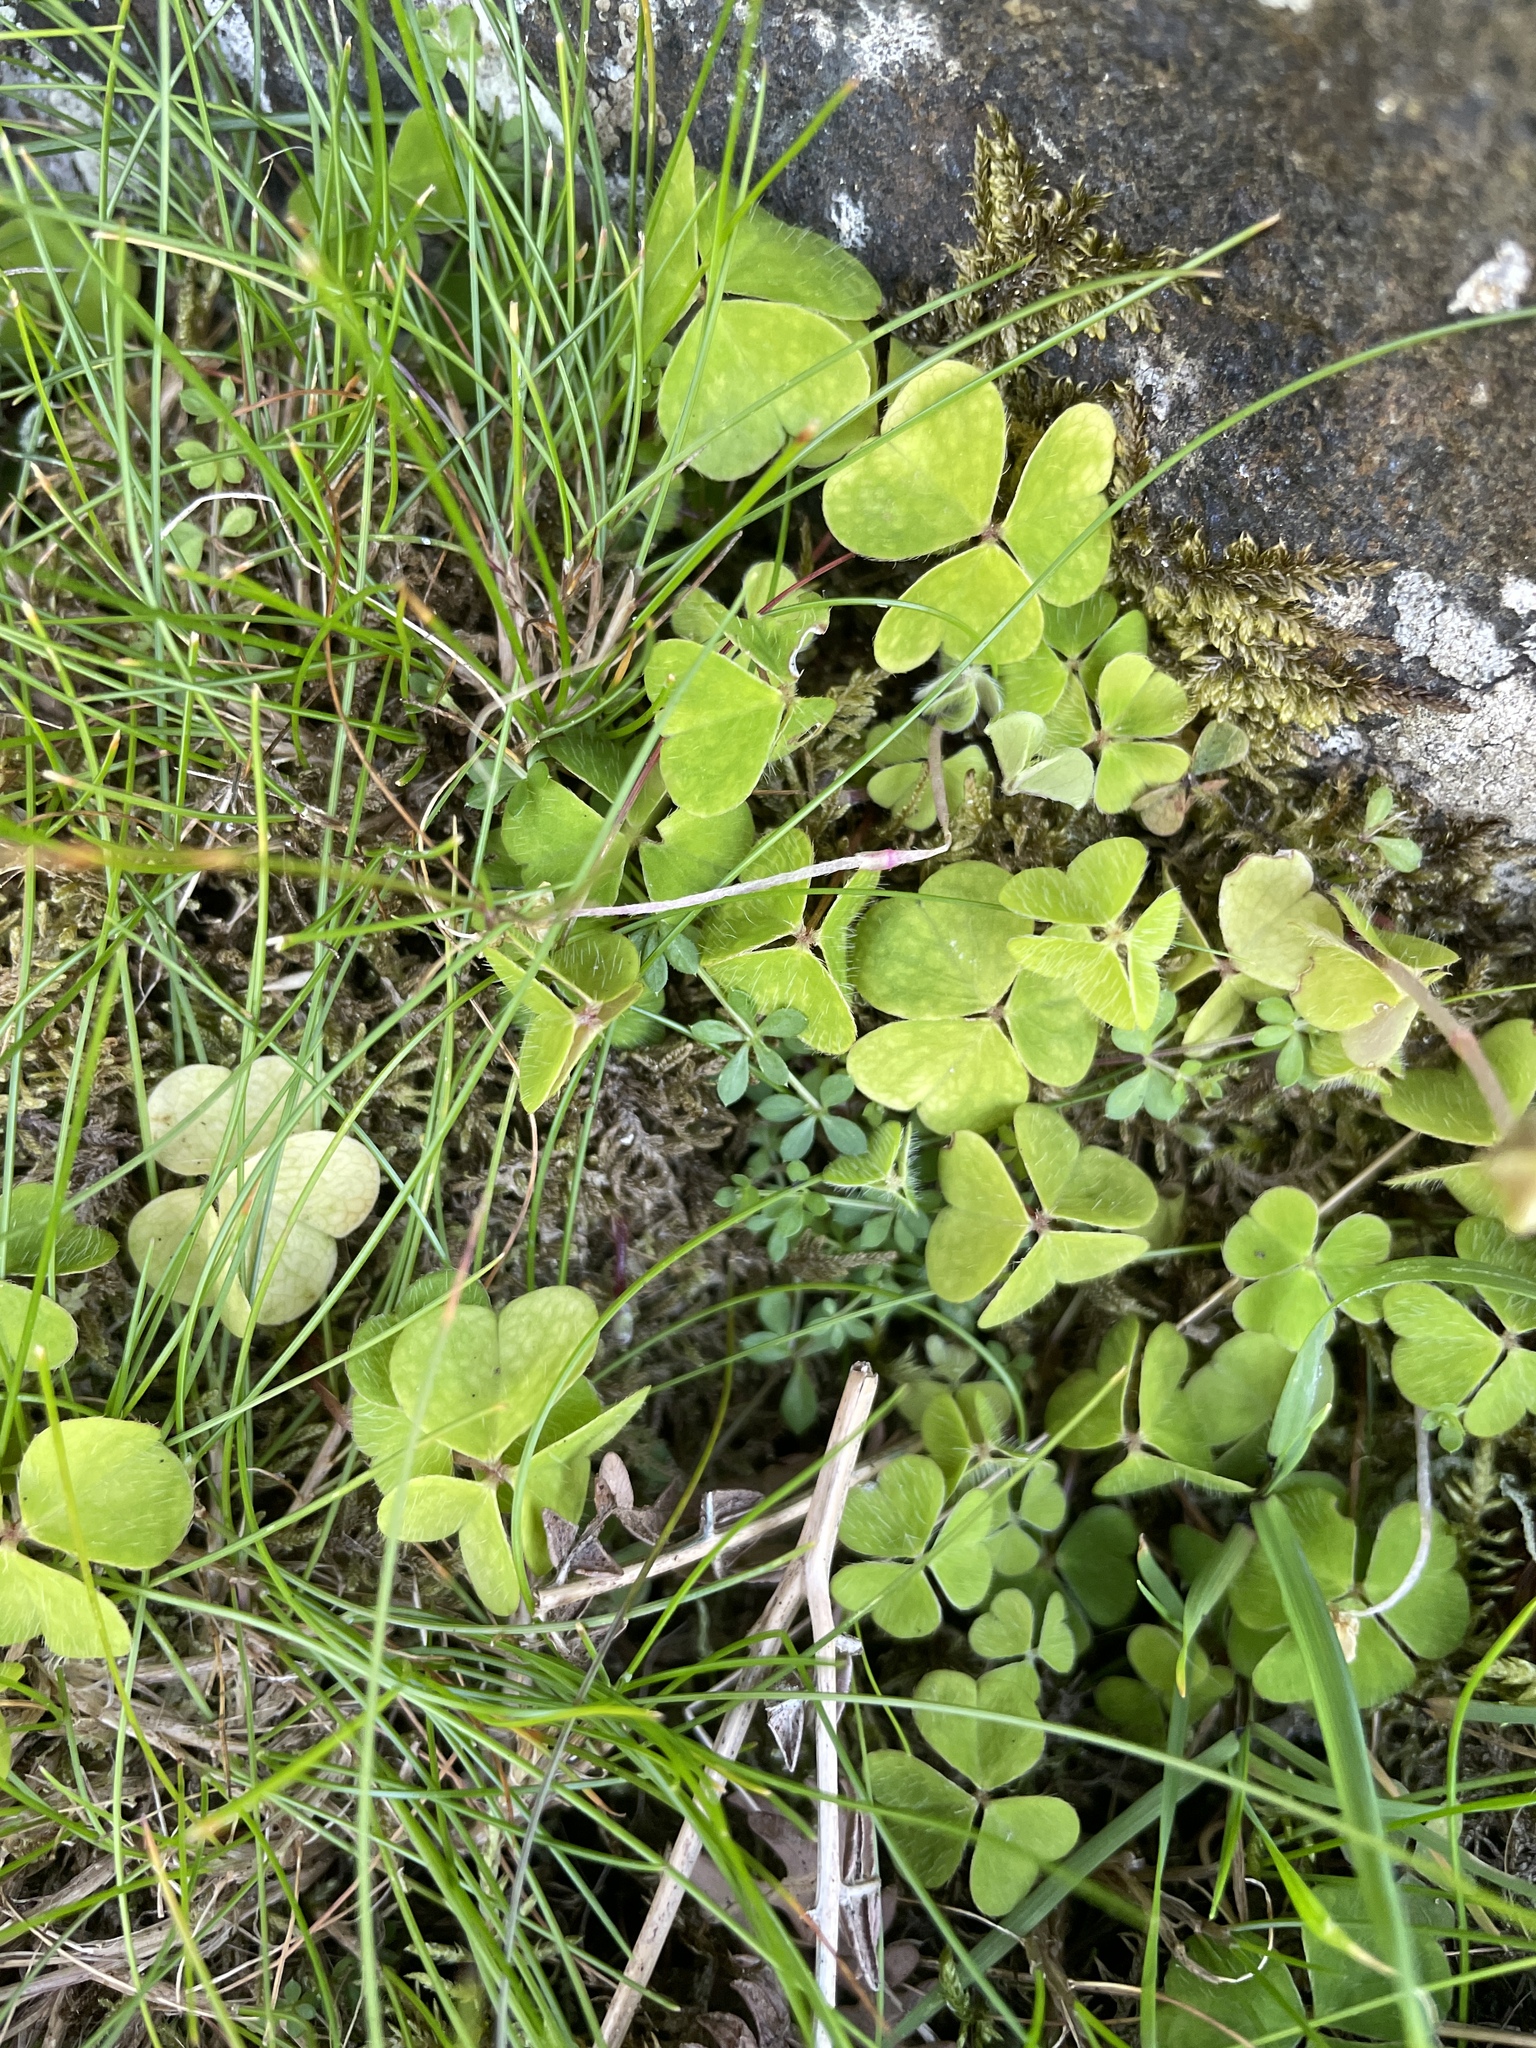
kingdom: Plantae
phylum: Tracheophyta
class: Magnoliopsida
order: Oxalidales
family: Oxalidaceae
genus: Oxalis
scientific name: Oxalis acetosella
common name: Wood-sorrel
